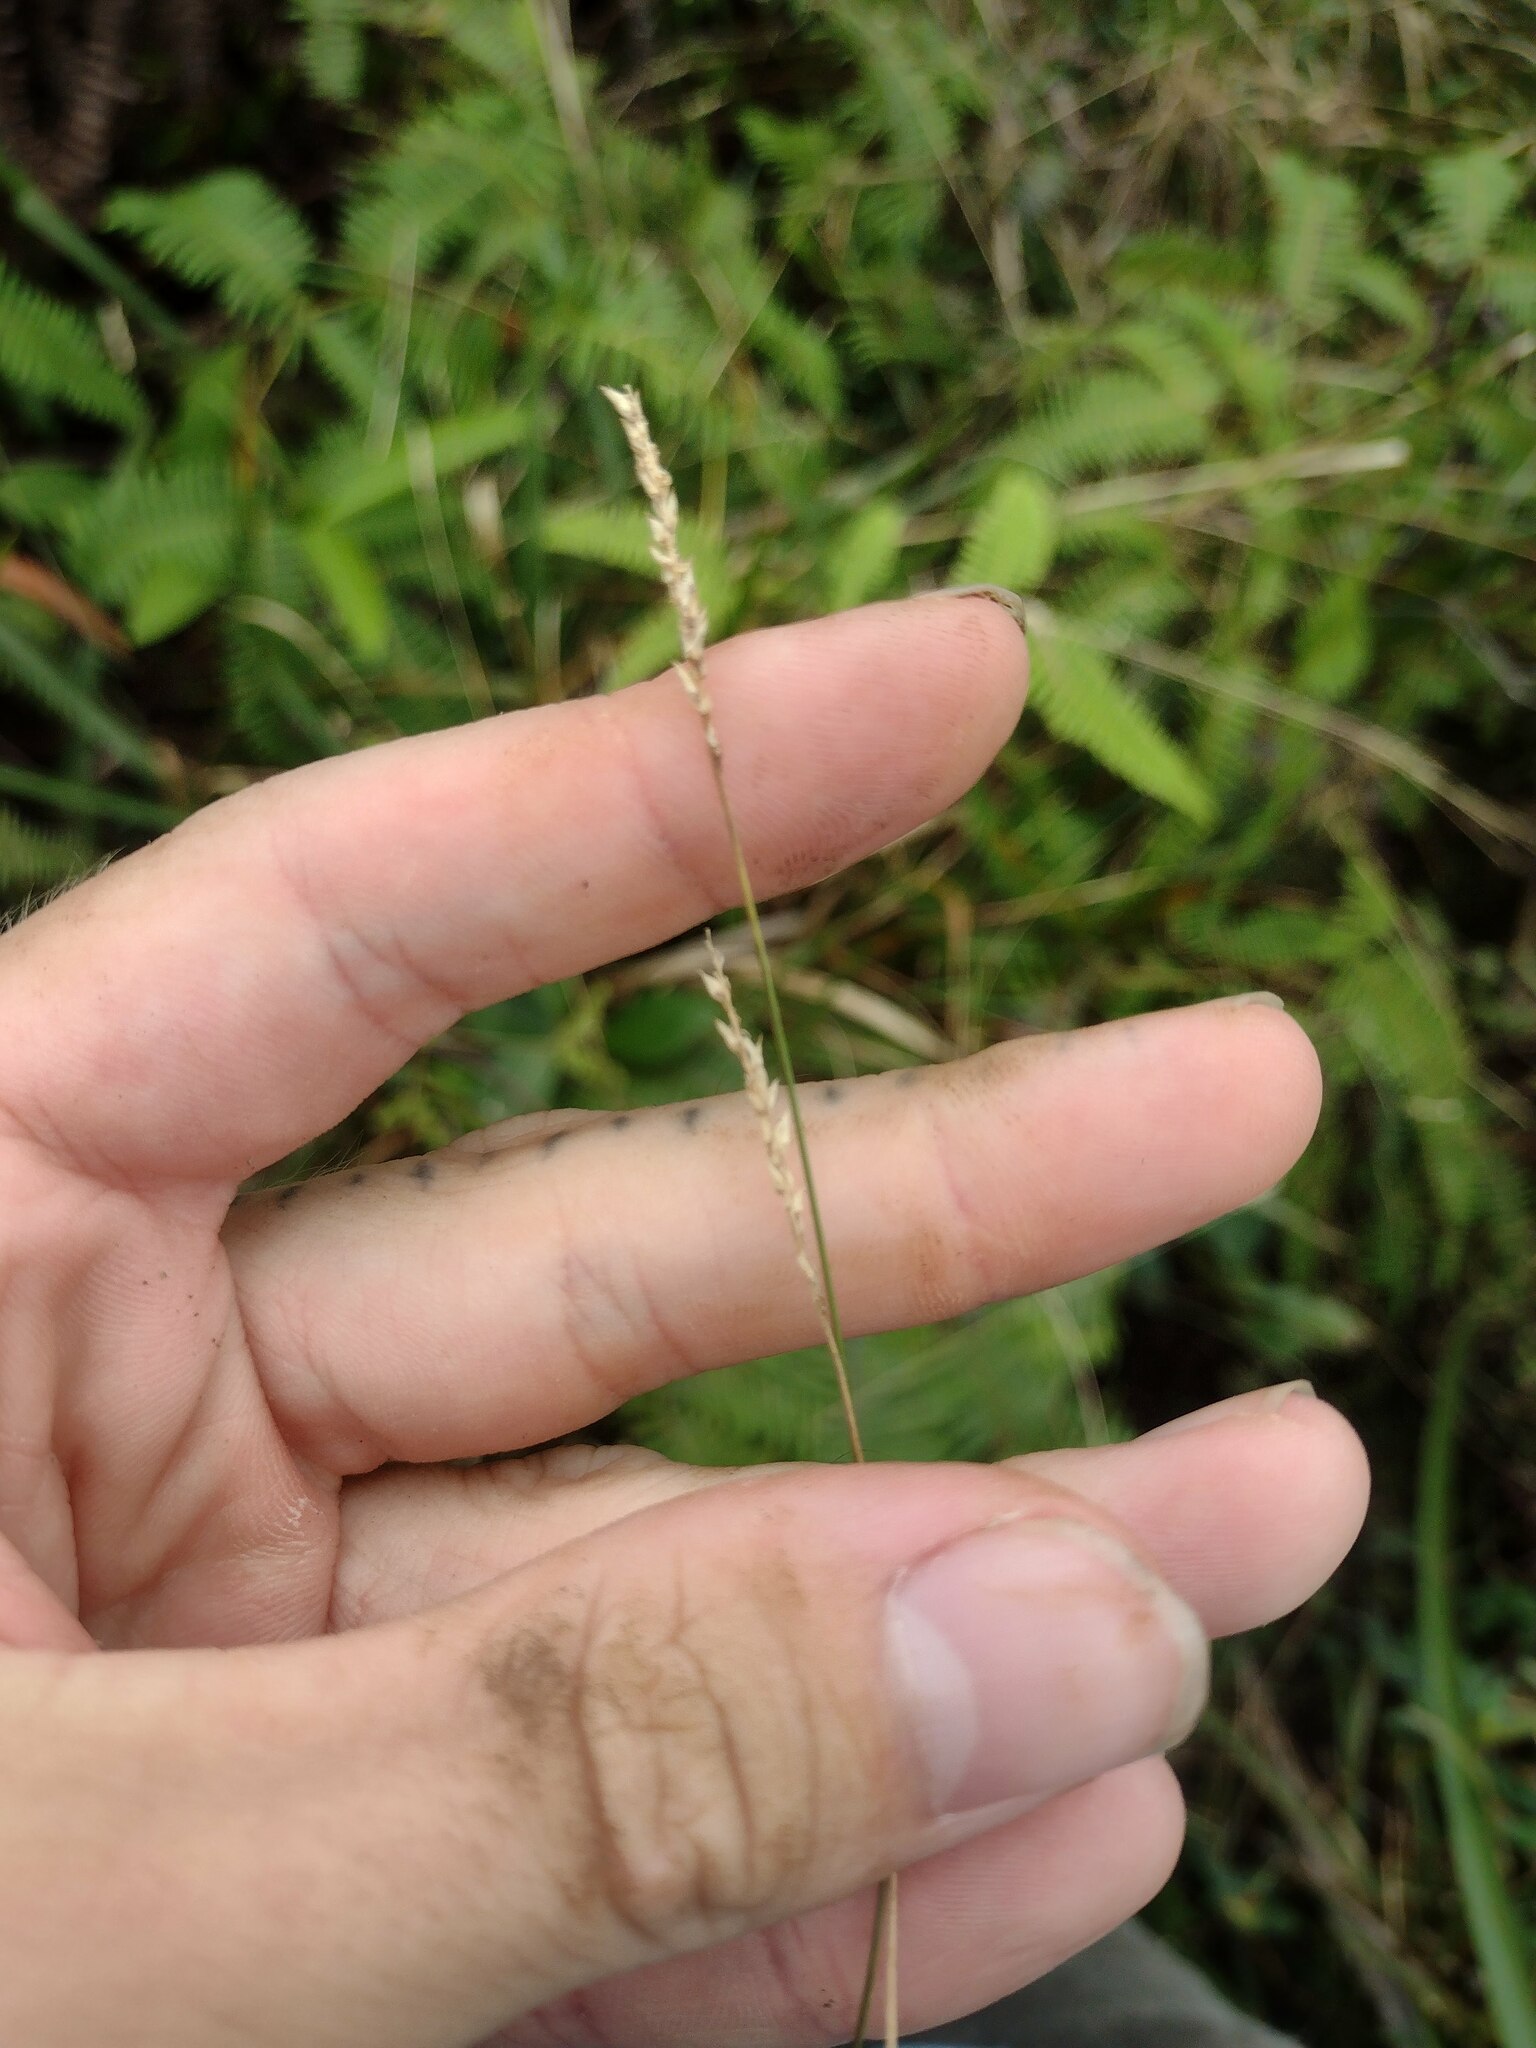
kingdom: Plantae
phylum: Tracheophyta
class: Liliopsida
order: Poales
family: Poaceae
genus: Sacciolepis
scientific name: Sacciolepis indica
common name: Glenwoodgrass
